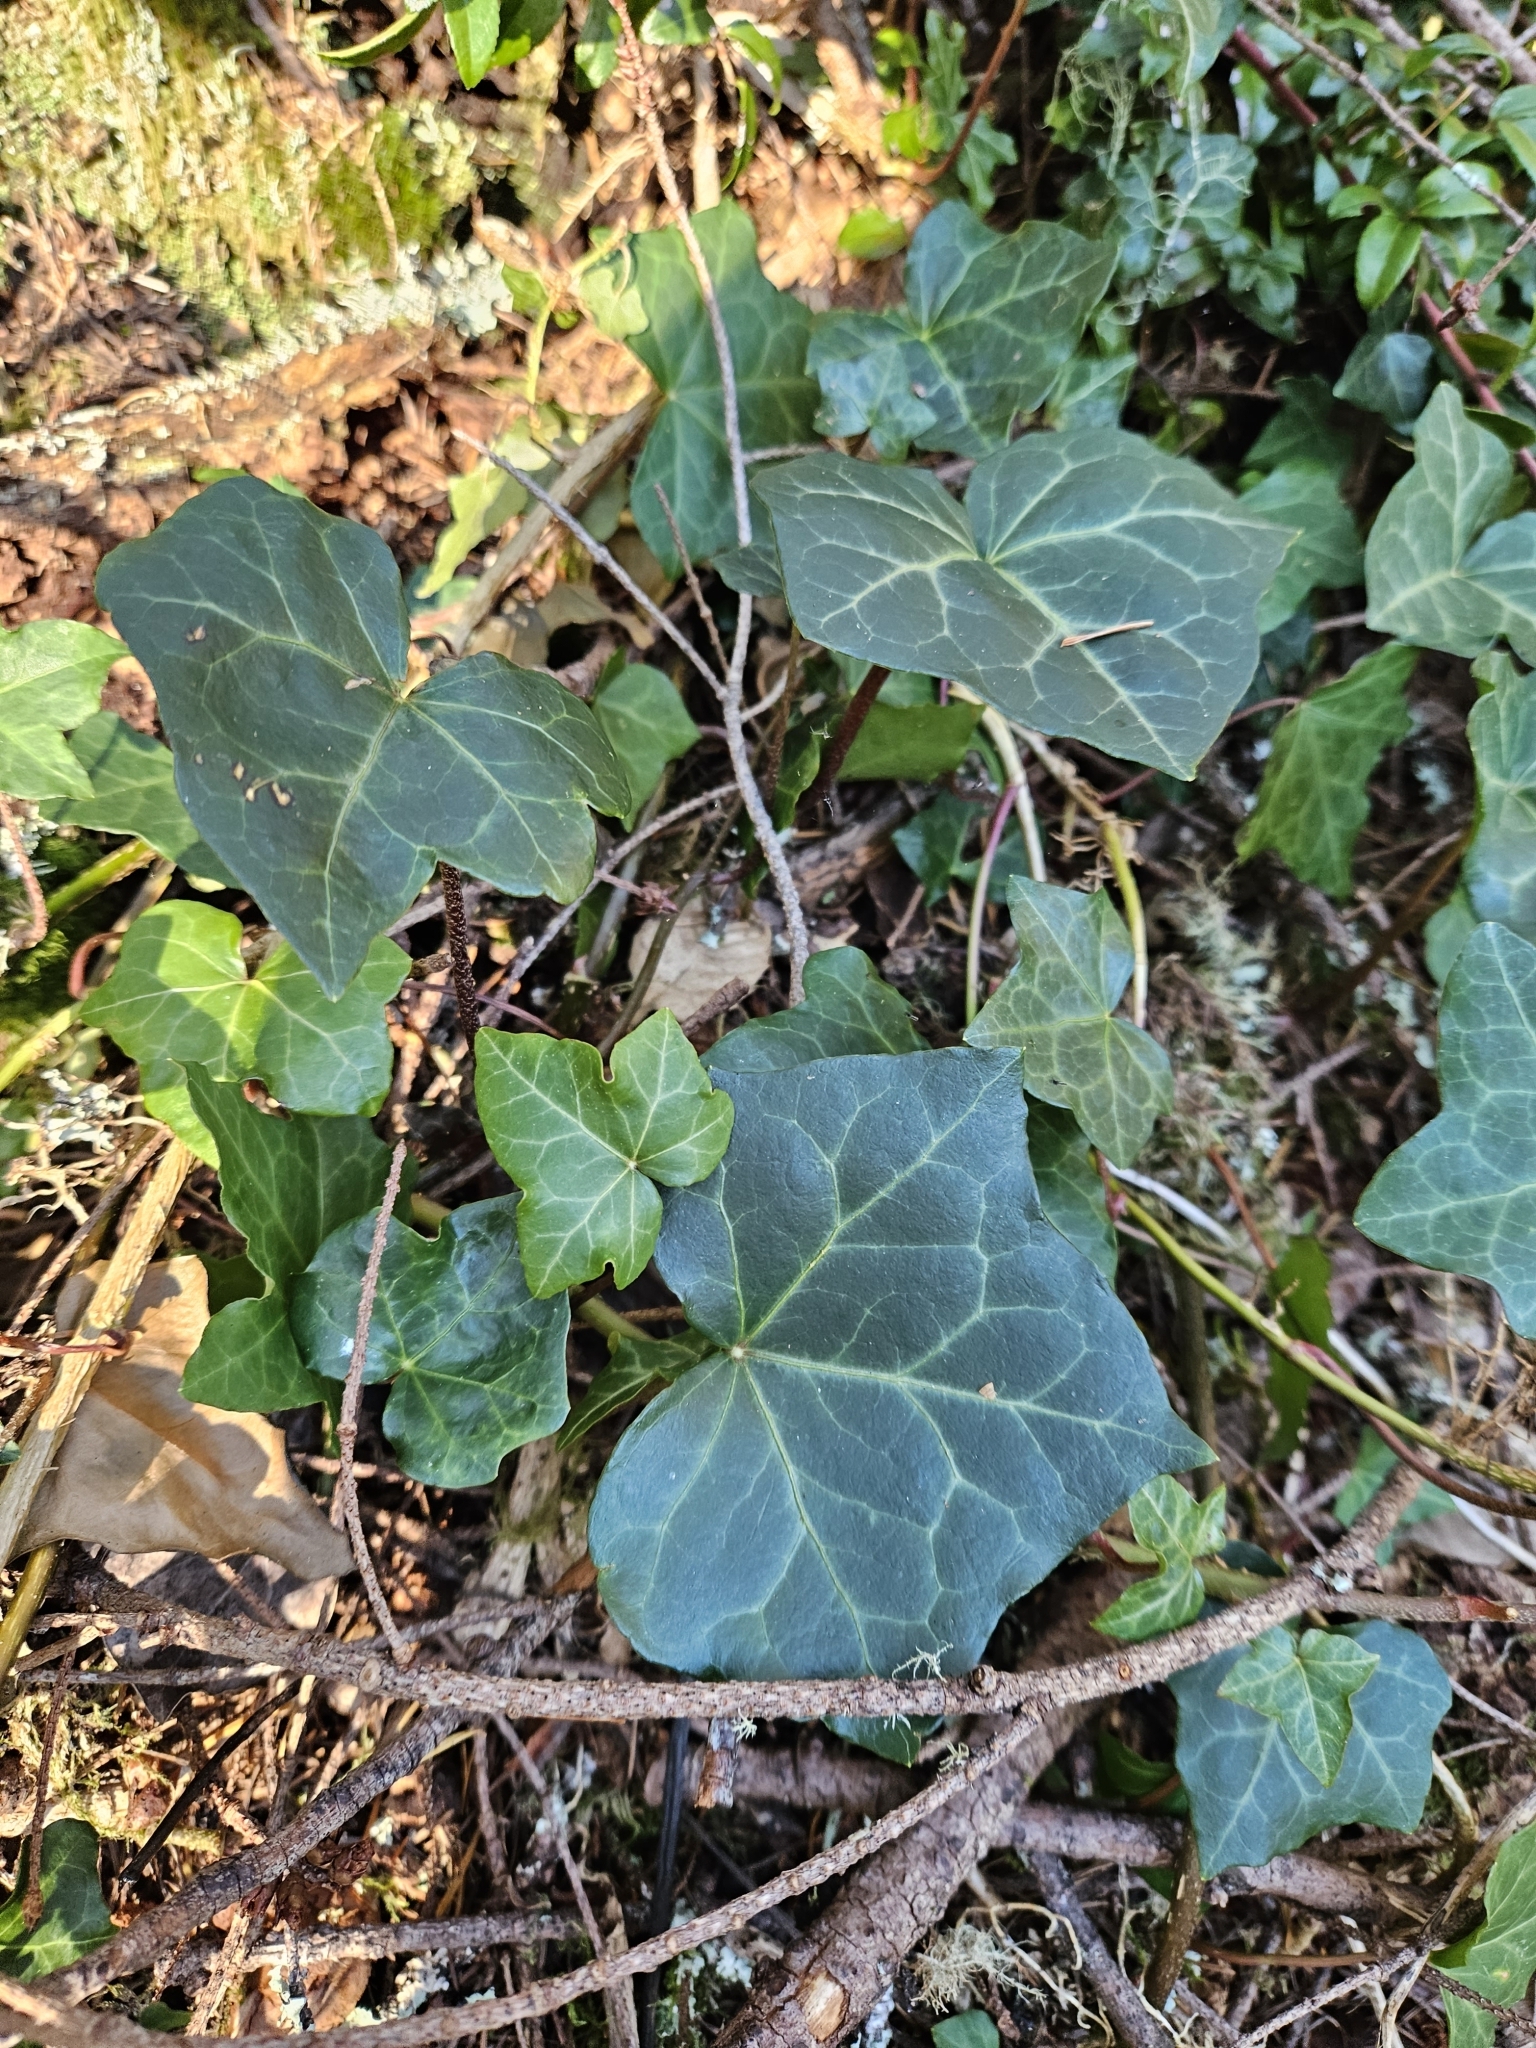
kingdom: Plantae
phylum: Tracheophyta
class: Magnoliopsida
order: Apiales
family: Araliaceae
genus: Hedera
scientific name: Hedera helix
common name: Ivy
